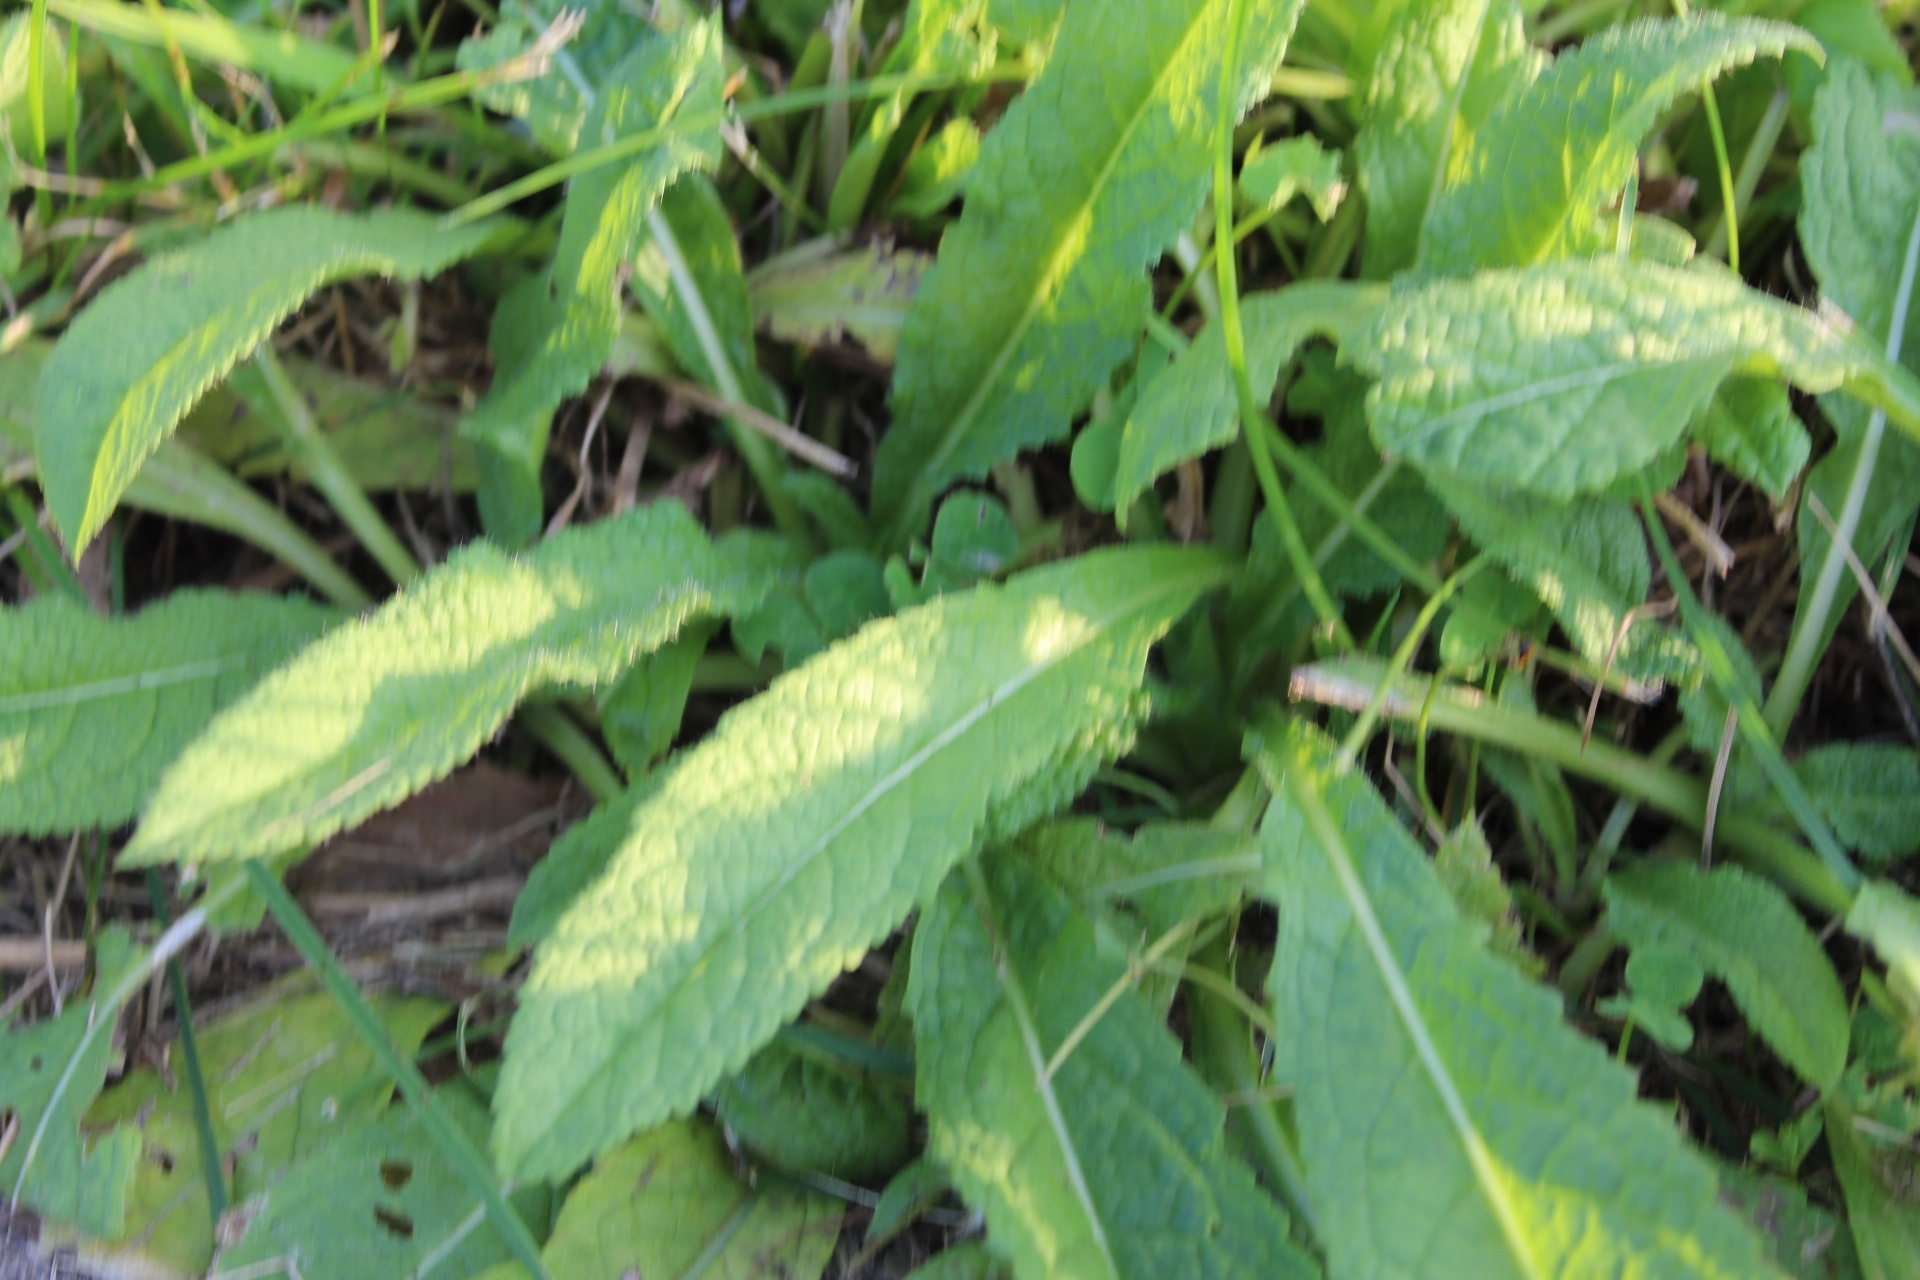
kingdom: Plantae
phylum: Tracheophyta
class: Magnoliopsida
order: Dipsacales
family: Caprifoliaceae
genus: Dipsacus
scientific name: Dipsacus laciniatus
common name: Cut-leaved teasel
